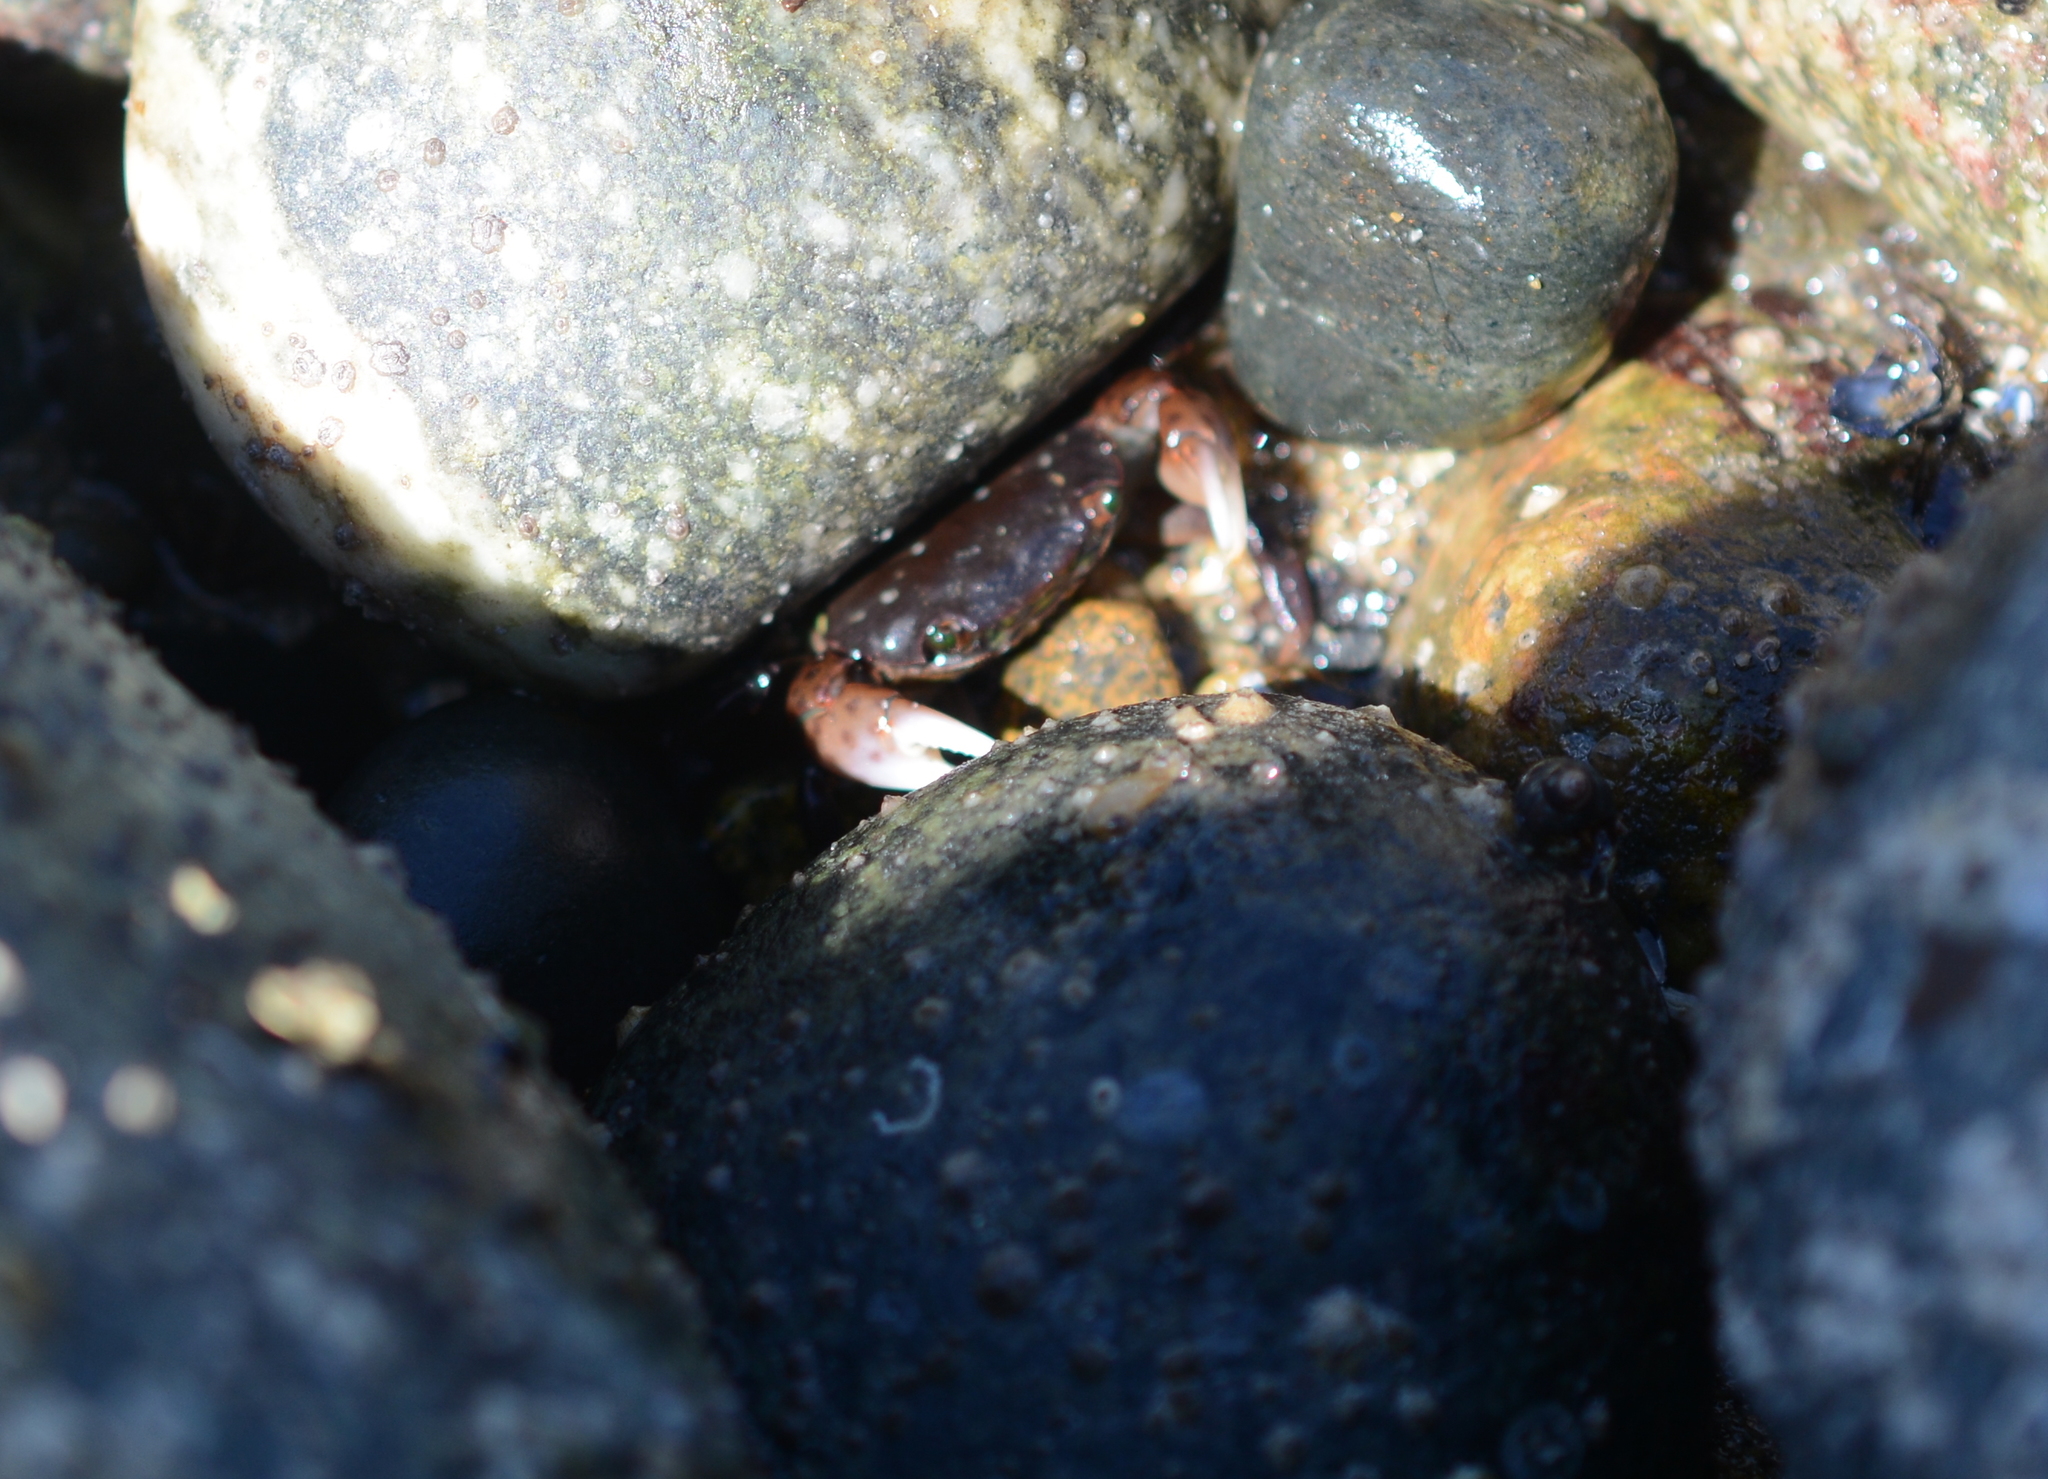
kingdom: Animalia
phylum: Arthropoda
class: Malacostraca
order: Decapoda
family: Varunidae
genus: Hemigrapsus
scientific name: Hemigrapsus nudus
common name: Purple shore crab
